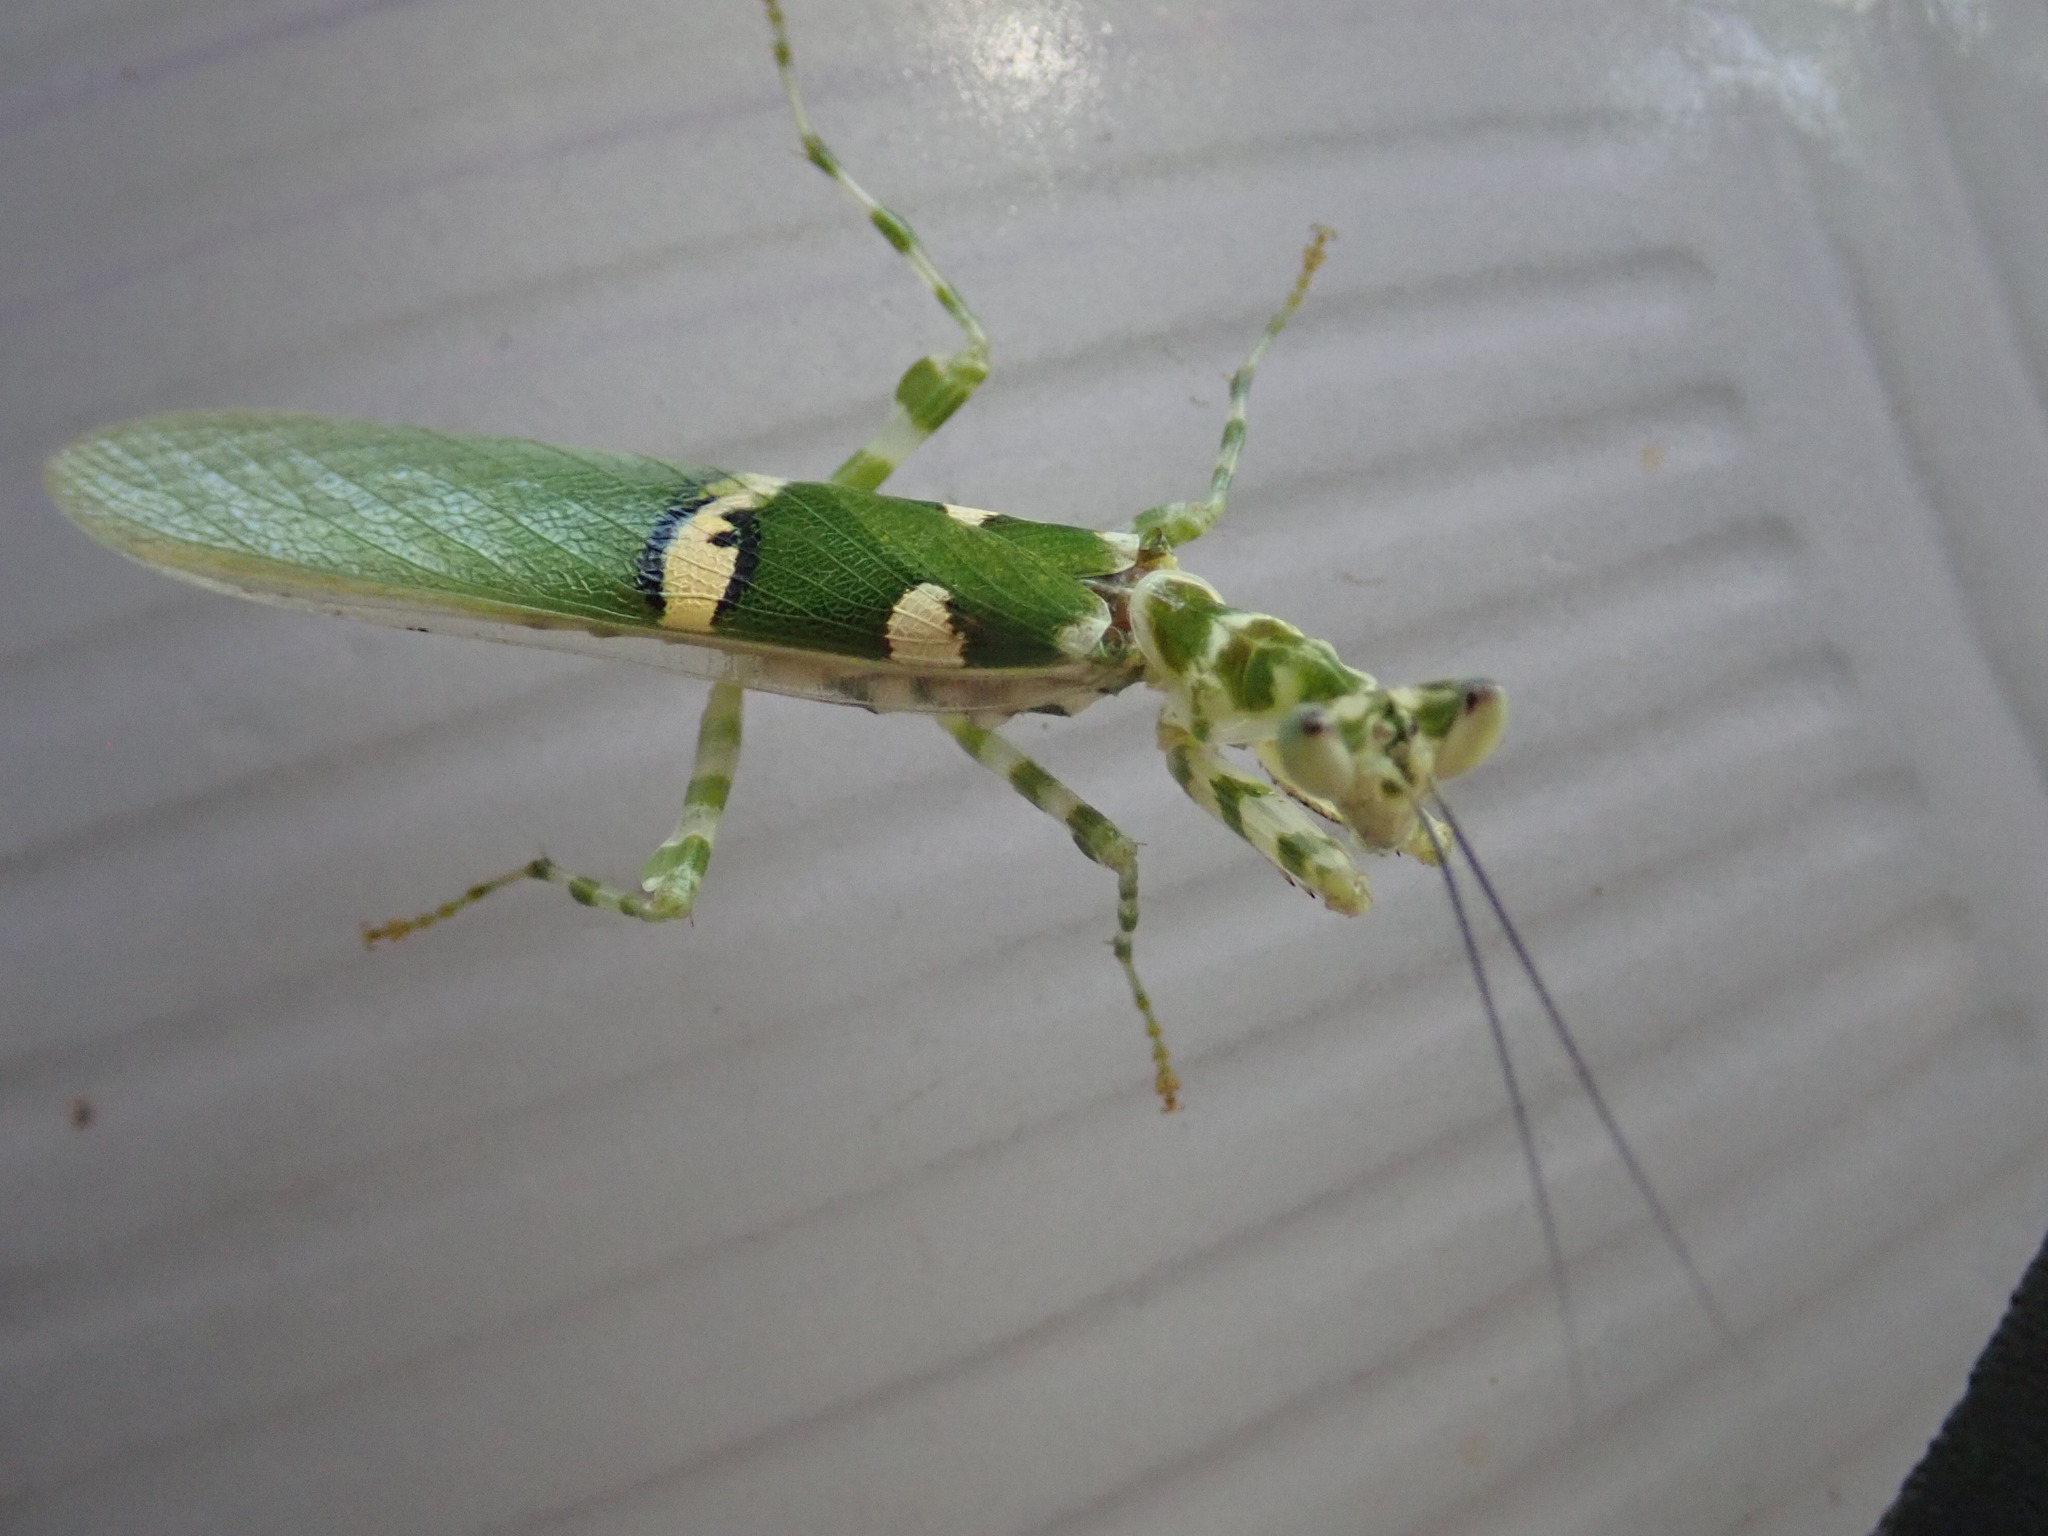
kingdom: Animalia
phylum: Arthropoda
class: Insecta
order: Mantodea
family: Hymenopodidae
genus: Creobroter
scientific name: Creobroter meleagris
